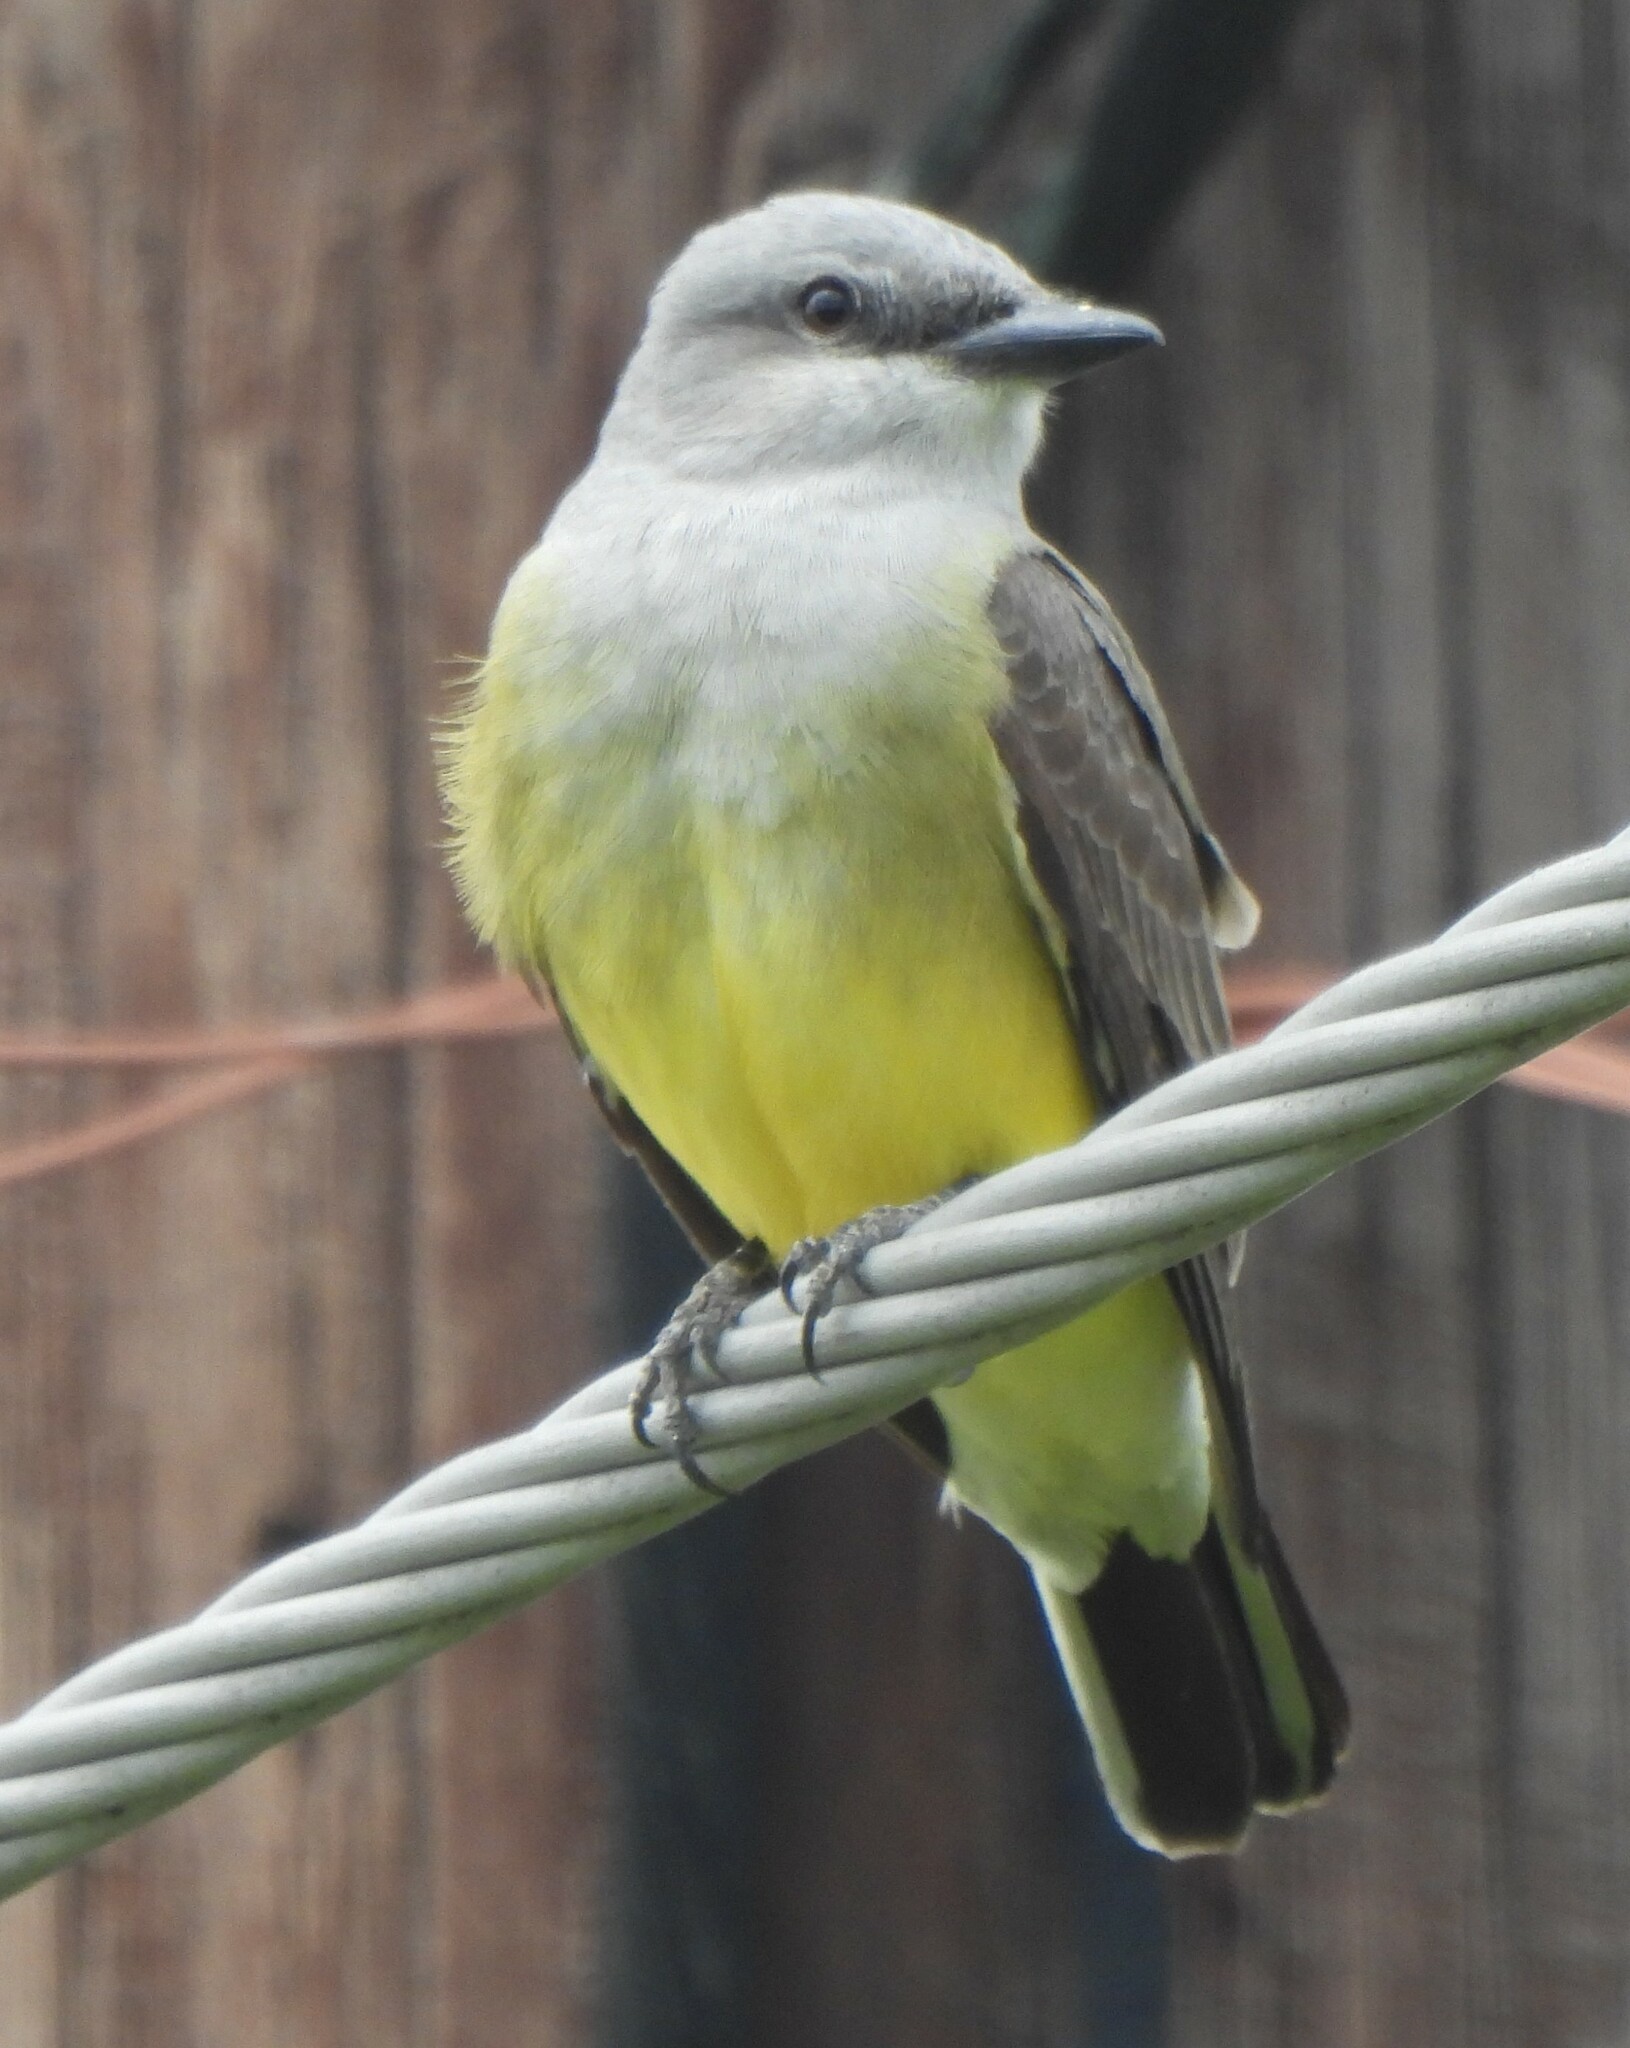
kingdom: Animalia
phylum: Chordata
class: Aves
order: Passeriformes
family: Tyrannidae
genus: Tyrannus
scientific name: Tyrannus verticalis
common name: Western kingbird
